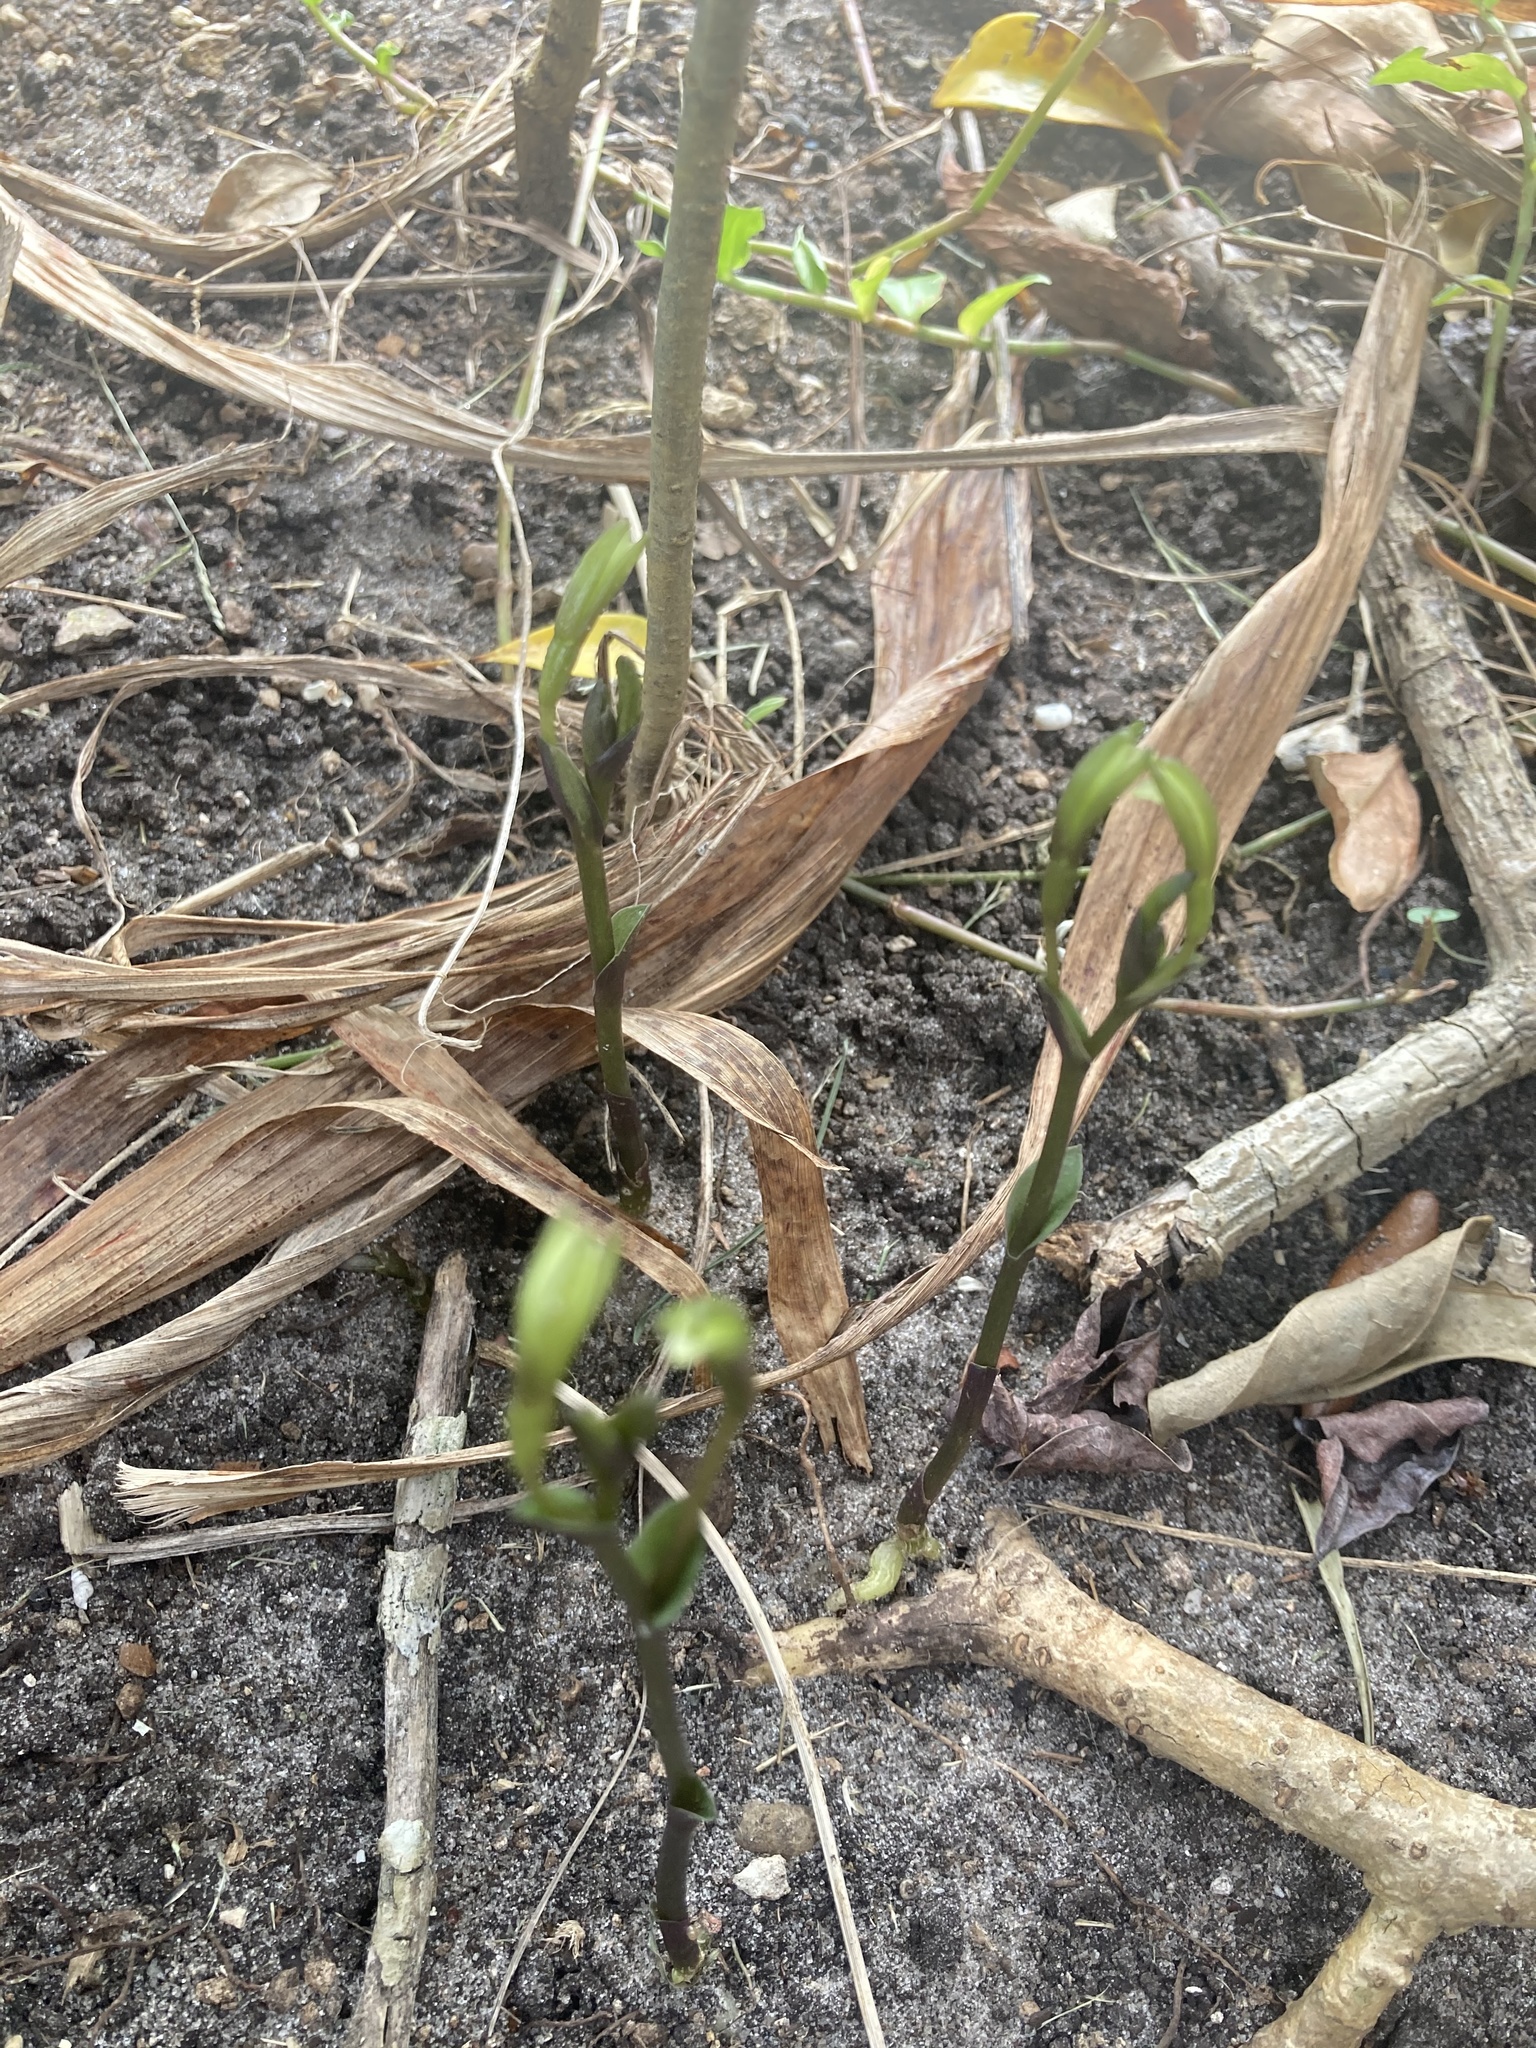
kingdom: Plantae
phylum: Tracheophyta
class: Liliopsida
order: Asparagales
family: Orchidaceae
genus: Triphora
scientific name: Triphora gentianoides
